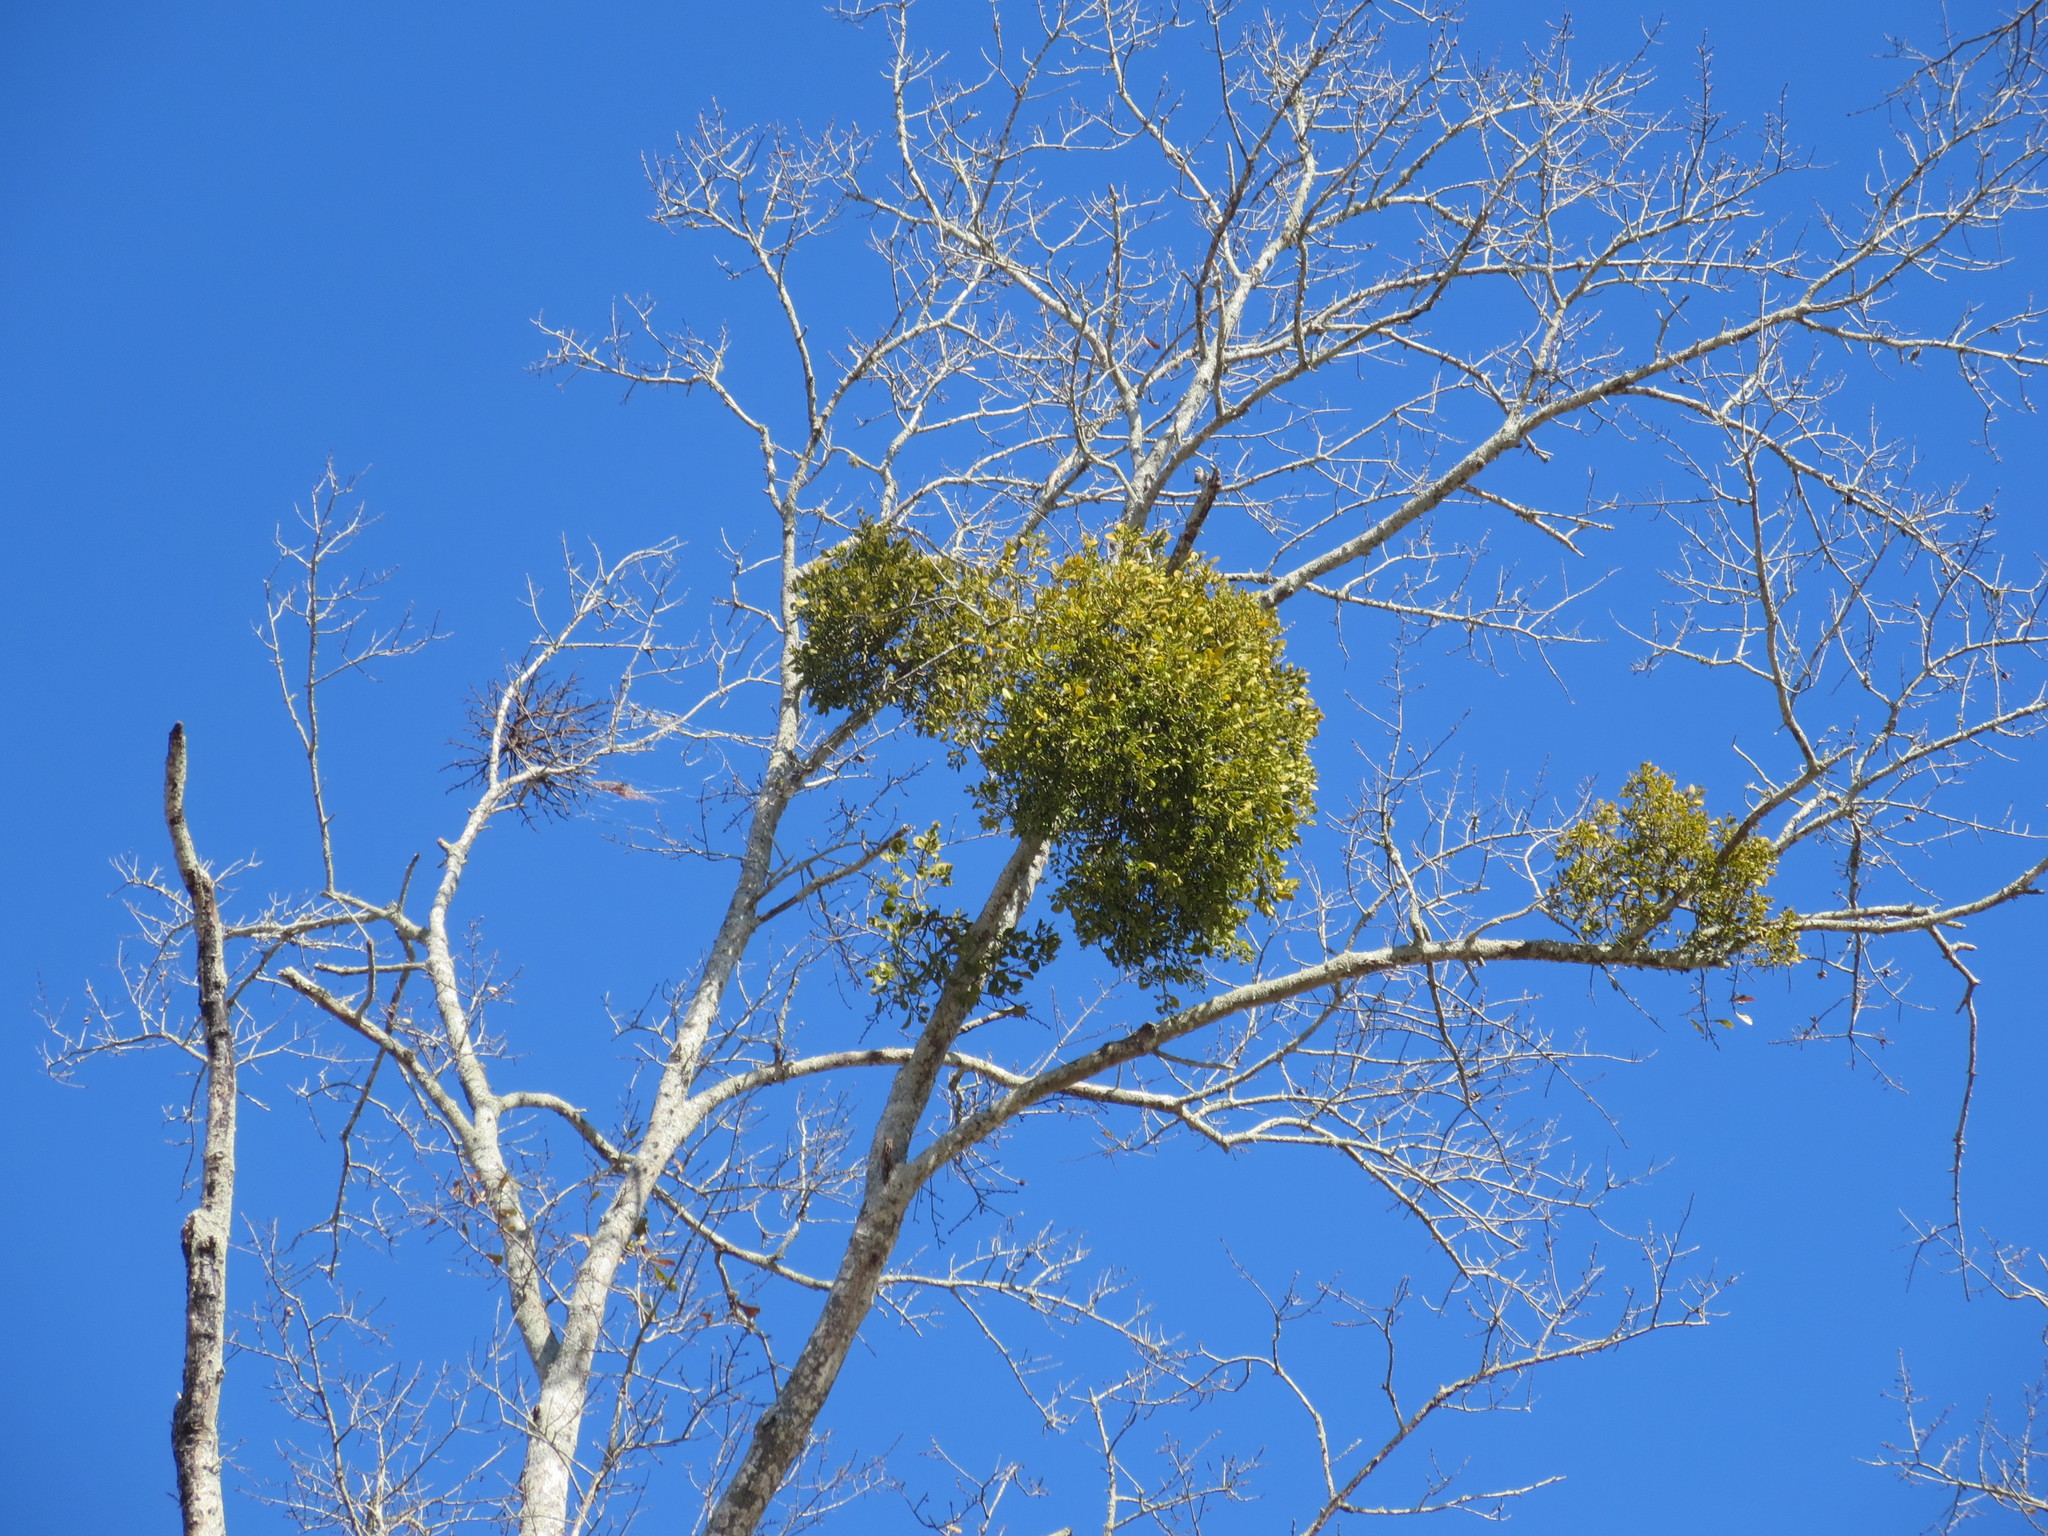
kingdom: Plantae
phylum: Tracheophyta
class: Magnoliopsida
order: Santalales
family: Viscaceae
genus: Phoradendron
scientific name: Phoradendron leucarpum
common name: Pacific mistletoe
